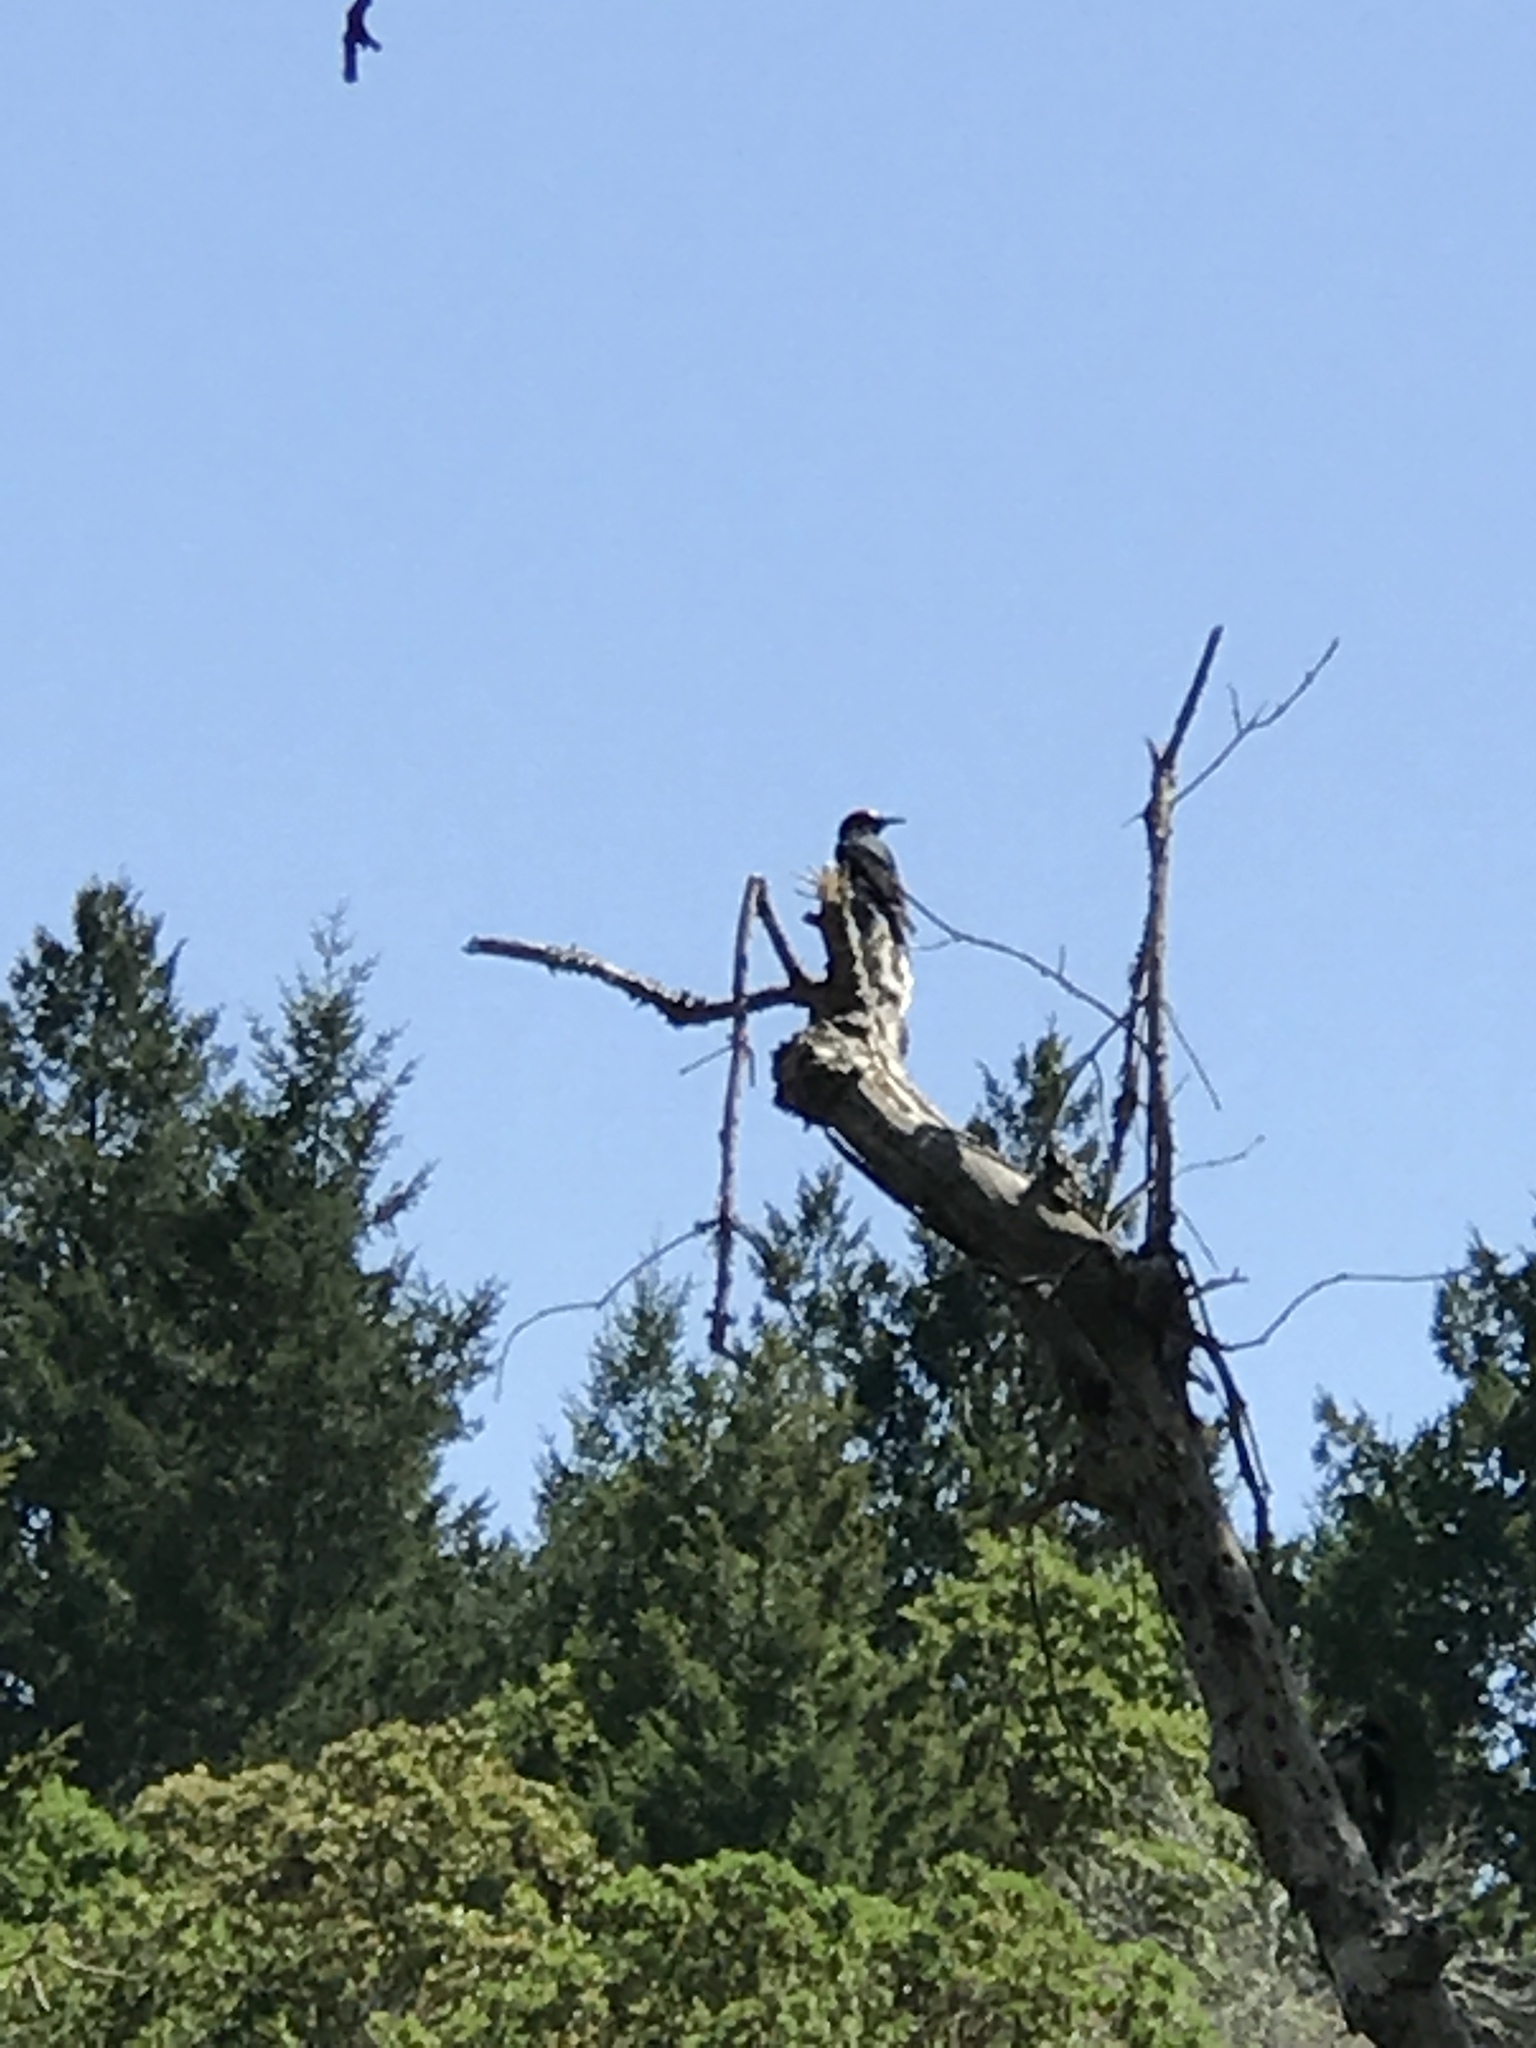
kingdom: Animalia
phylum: Chordata
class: Aves
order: Piciformes
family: Picidae
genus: Melanerpes
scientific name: Melanerpes formicivorus
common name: Acorn woodpecker
